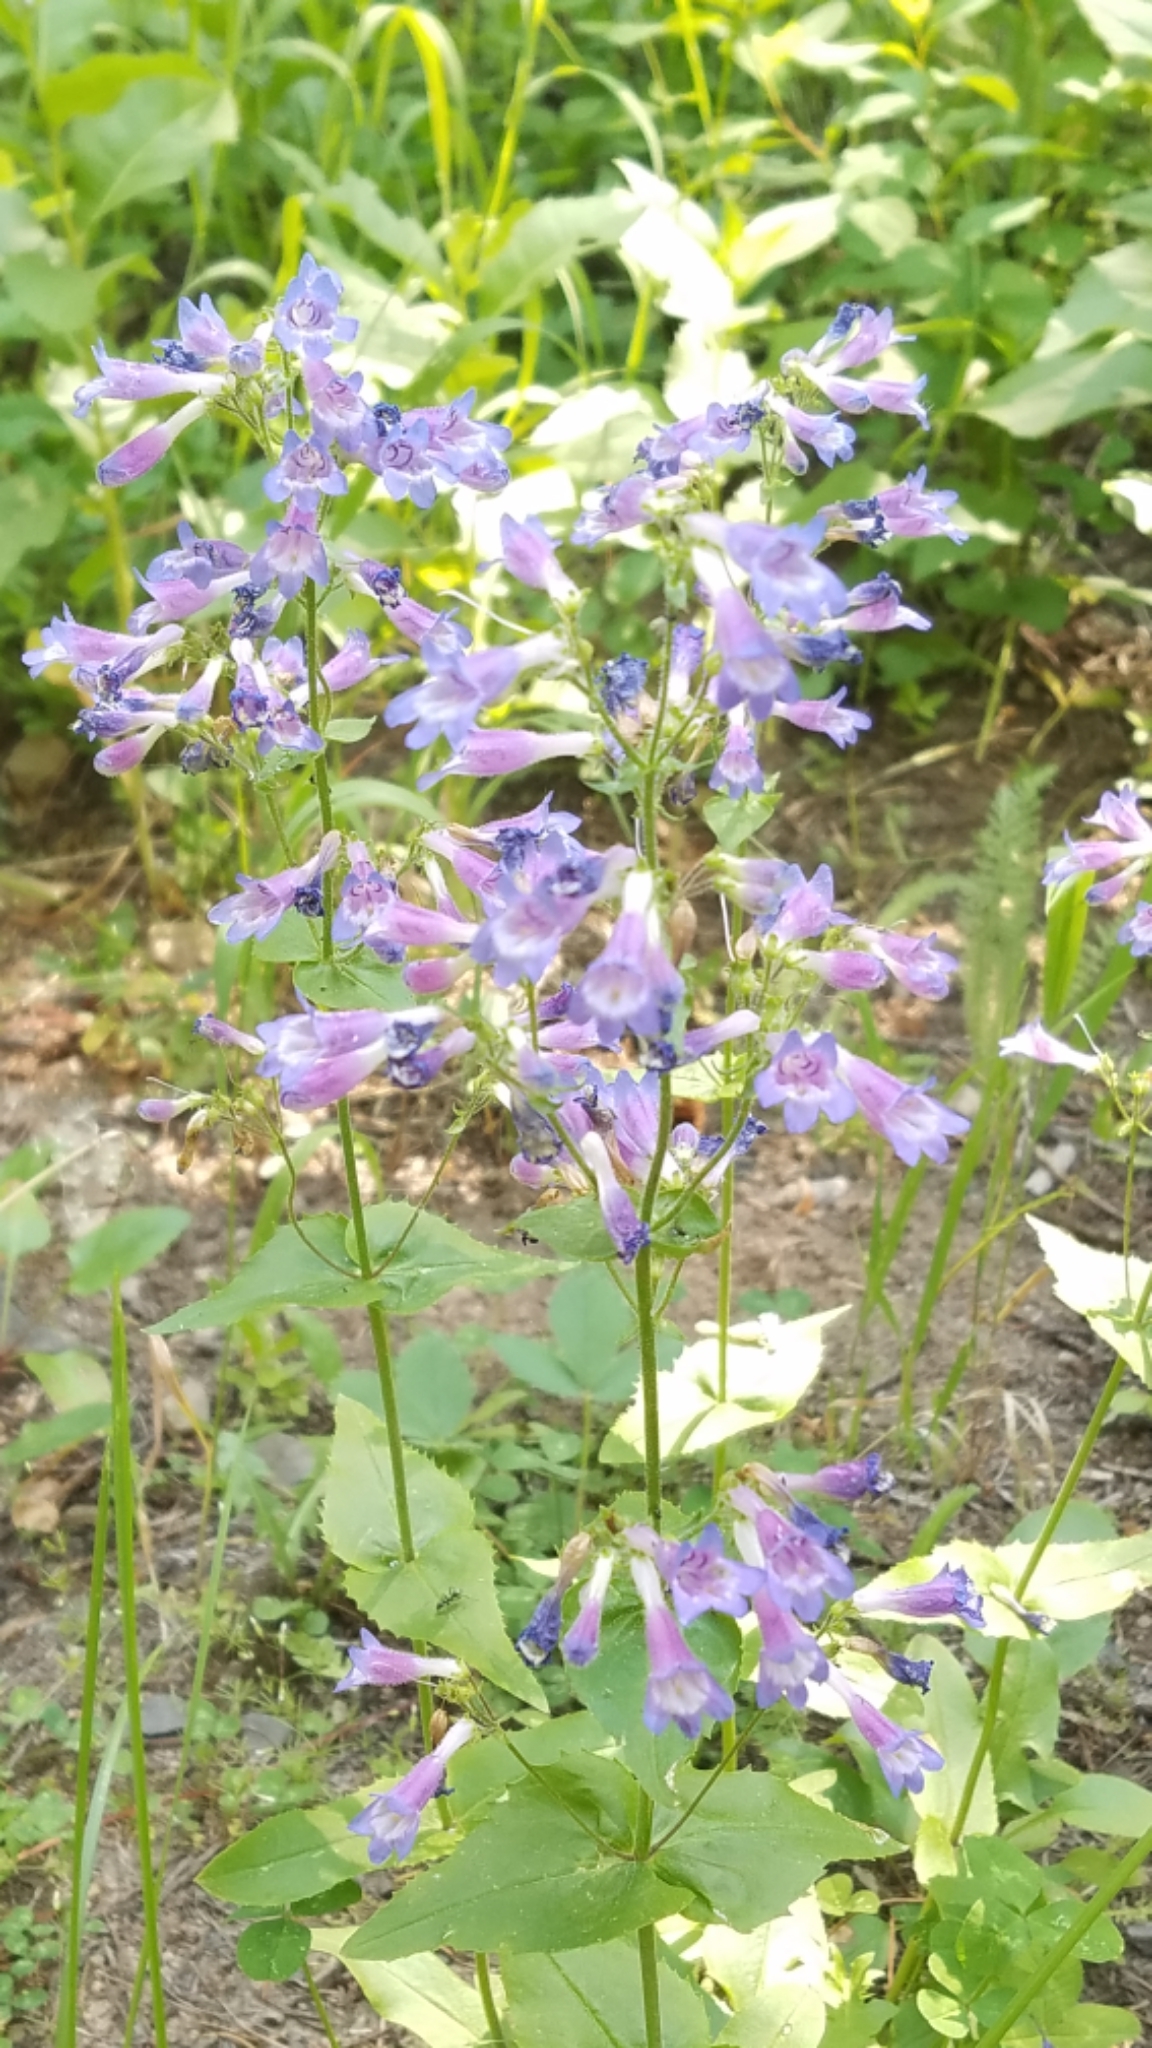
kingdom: Plantae
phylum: Tracheophyta
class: Magnoliopsida
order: Lamiales
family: Plantaginaceae
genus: Penstemon
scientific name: Penstemon wilcoxii
